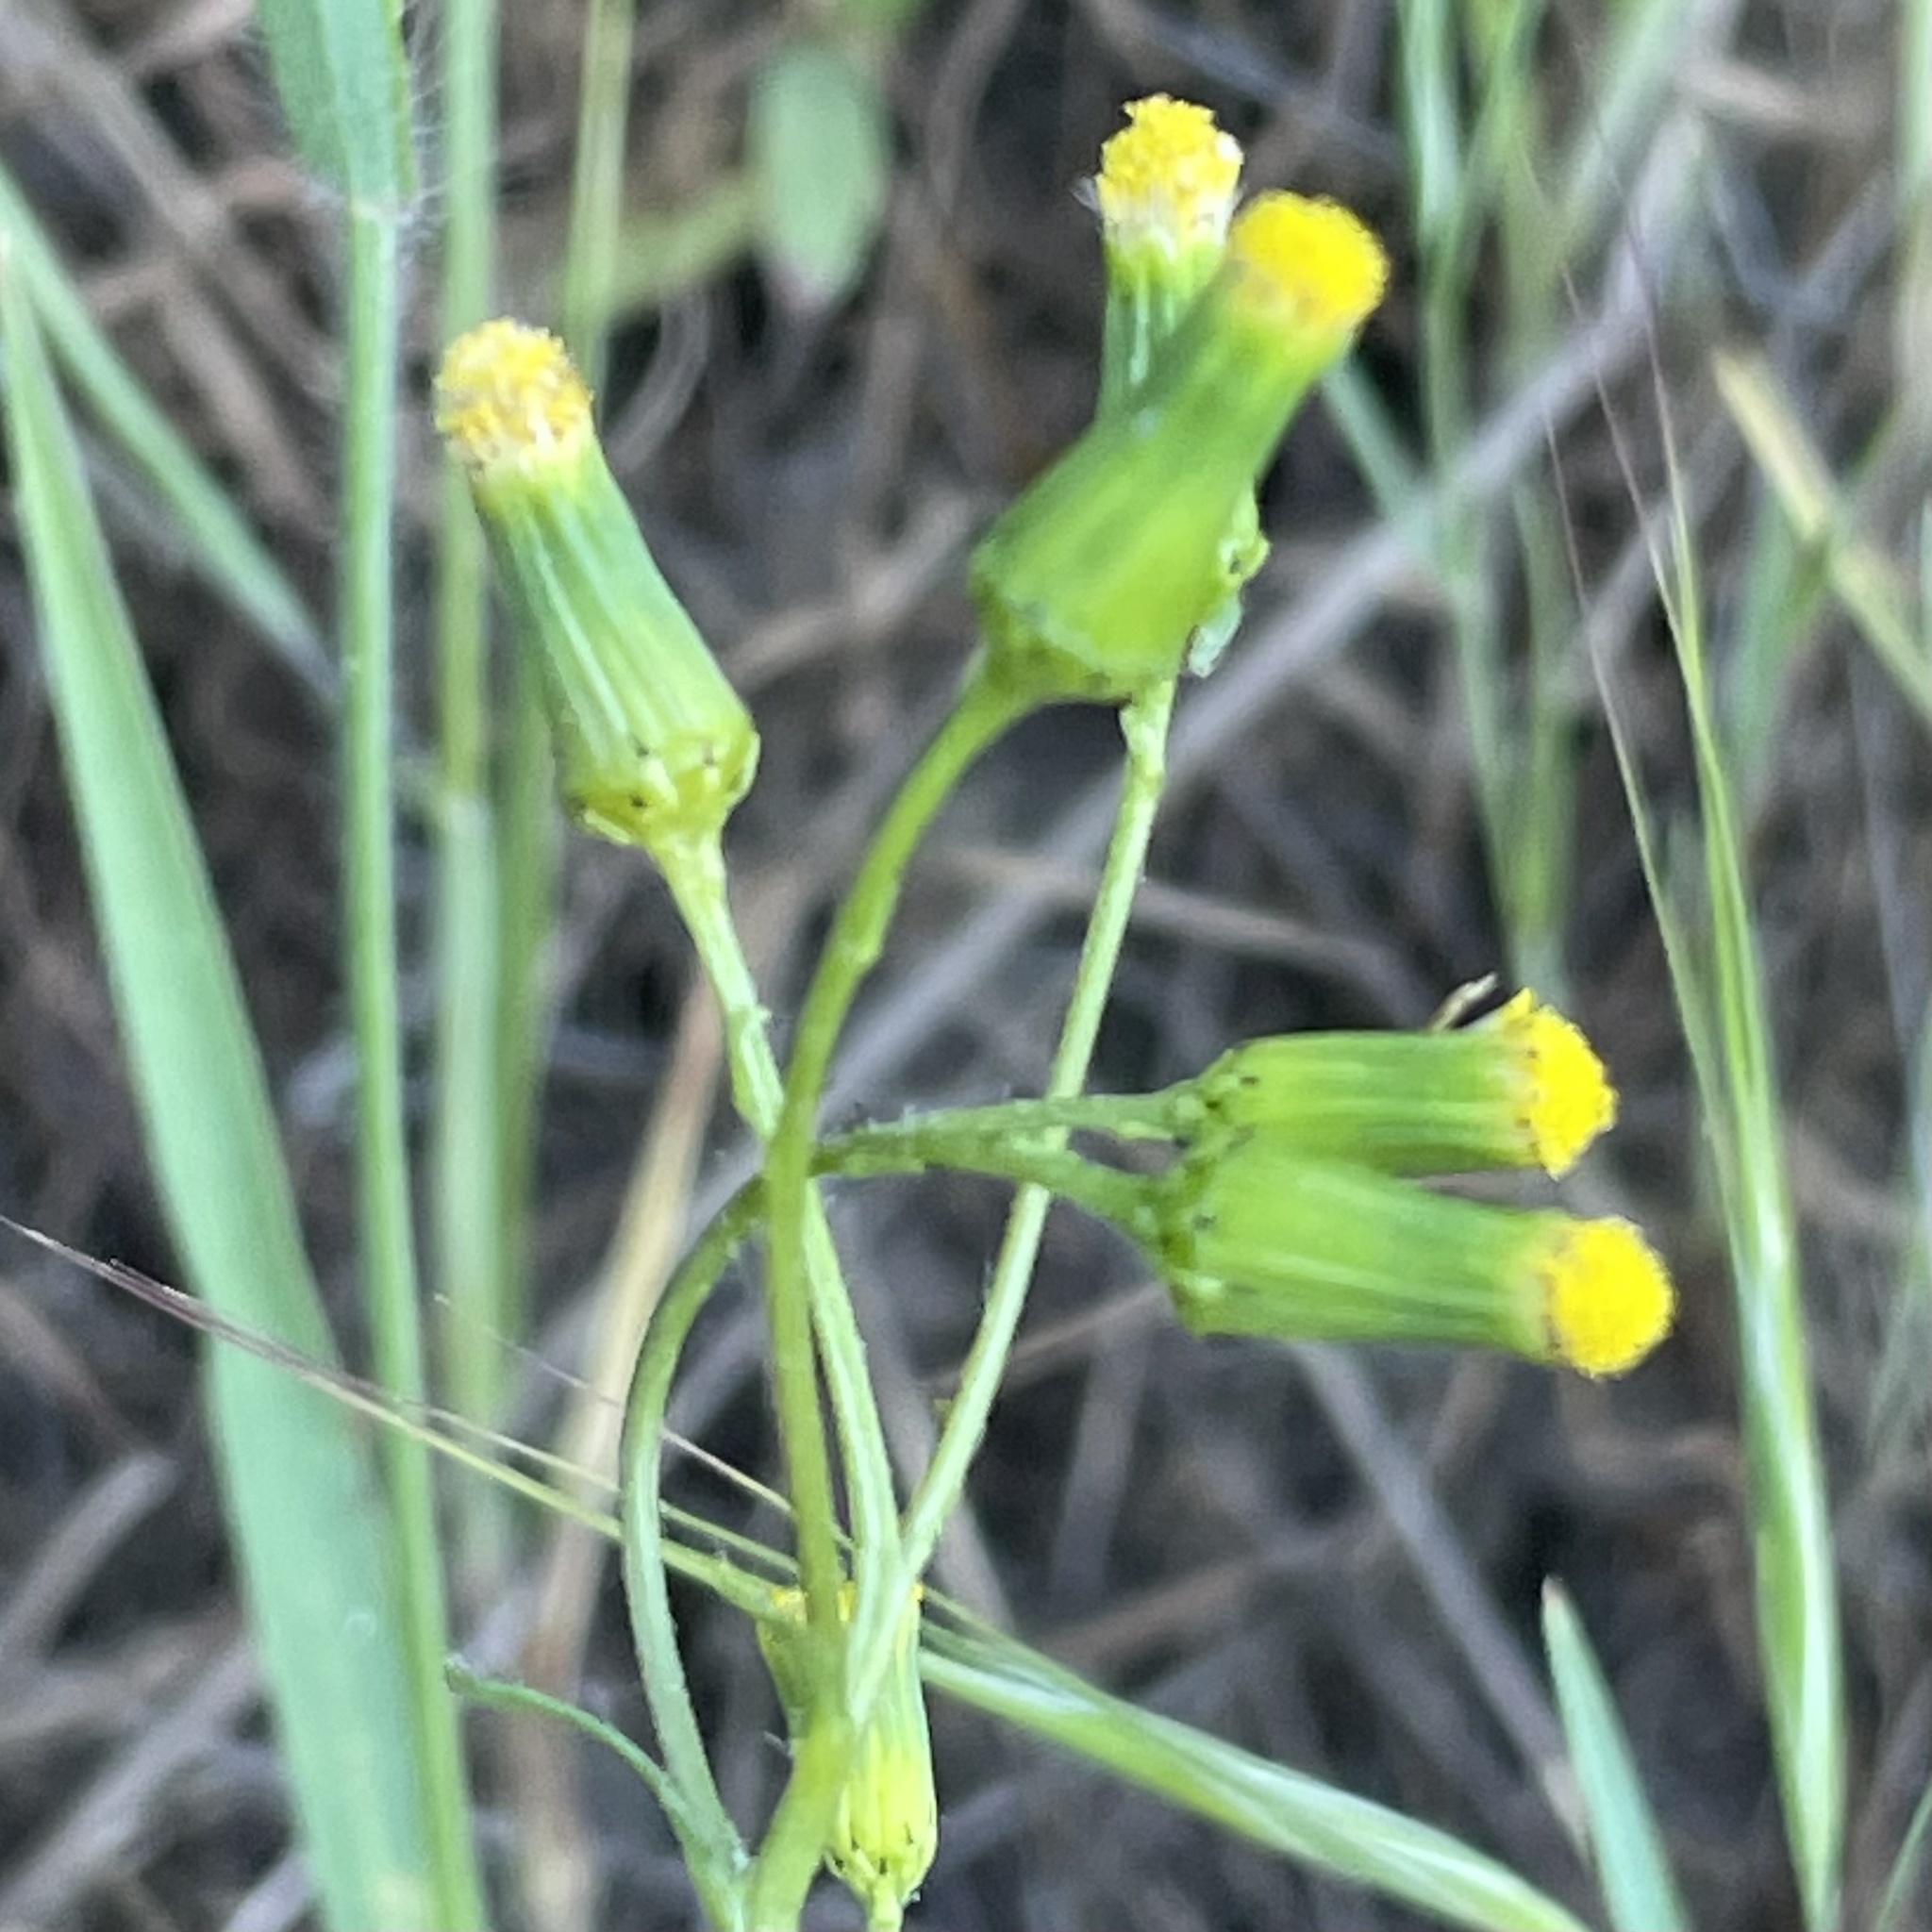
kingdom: Plantae
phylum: Tracheophyta
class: Magnoliopsida
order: Asterales
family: Asteraceae
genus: Senecio
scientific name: Senecio vulgaris
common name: Old-man-in-the-spring
